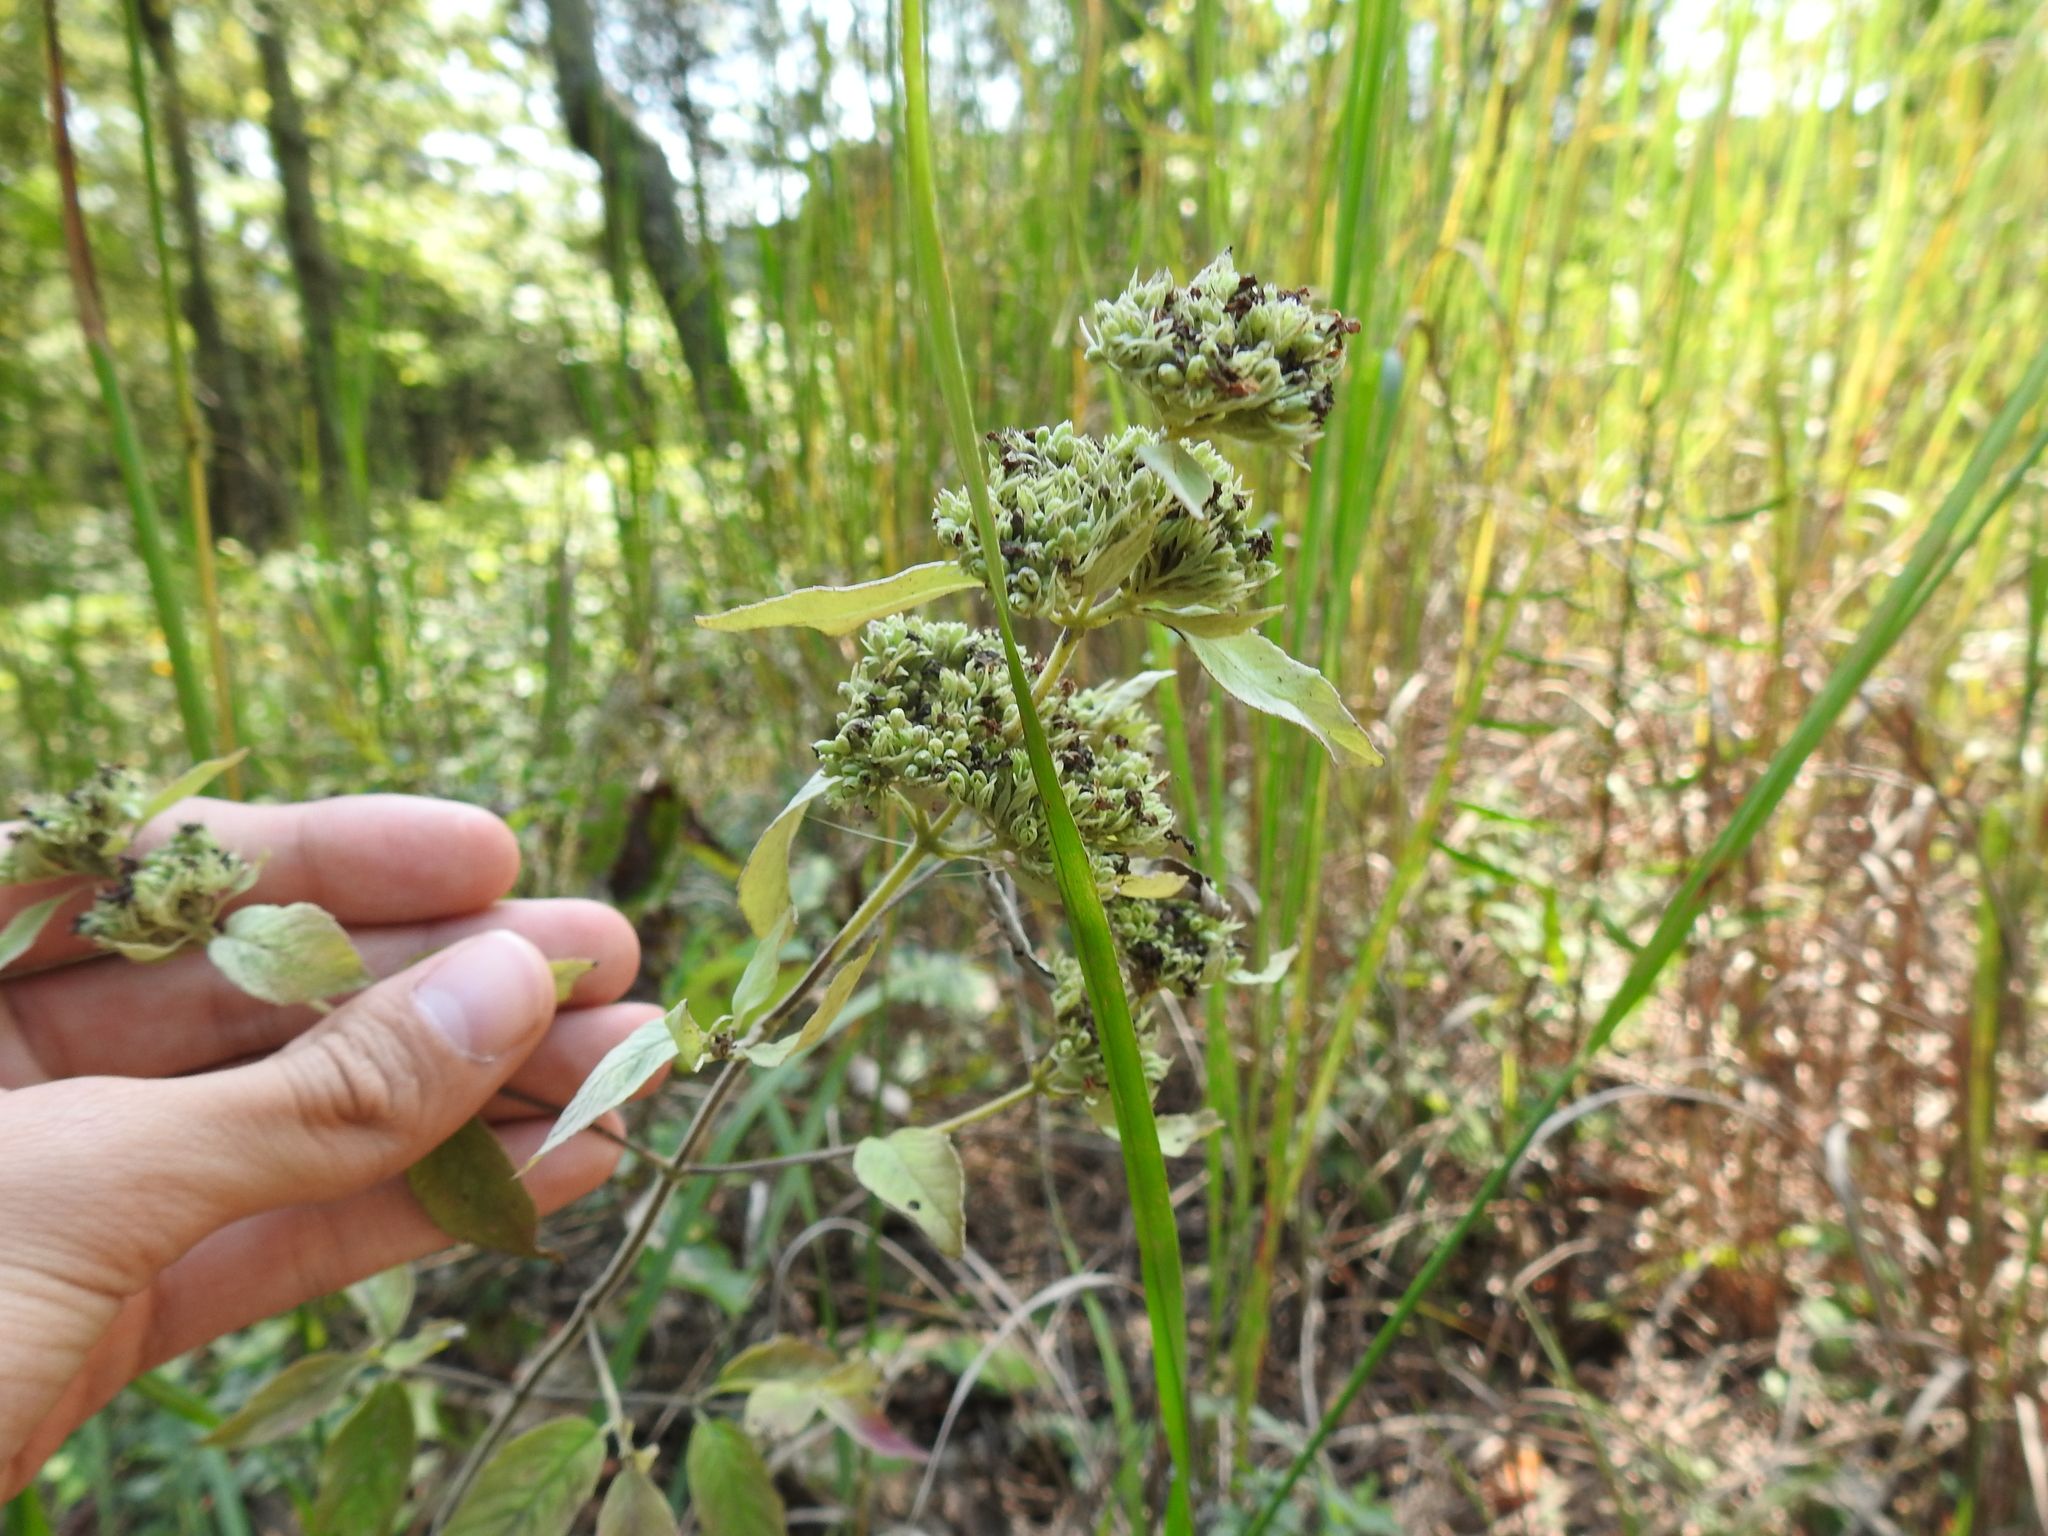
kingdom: Plantae
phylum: Tracheophyta
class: Magnoliopsida
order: Lamiales
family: Lamiaceae
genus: Pycnanthemum
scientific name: Pycnanthemum incanum
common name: Hoary mountain-mint
